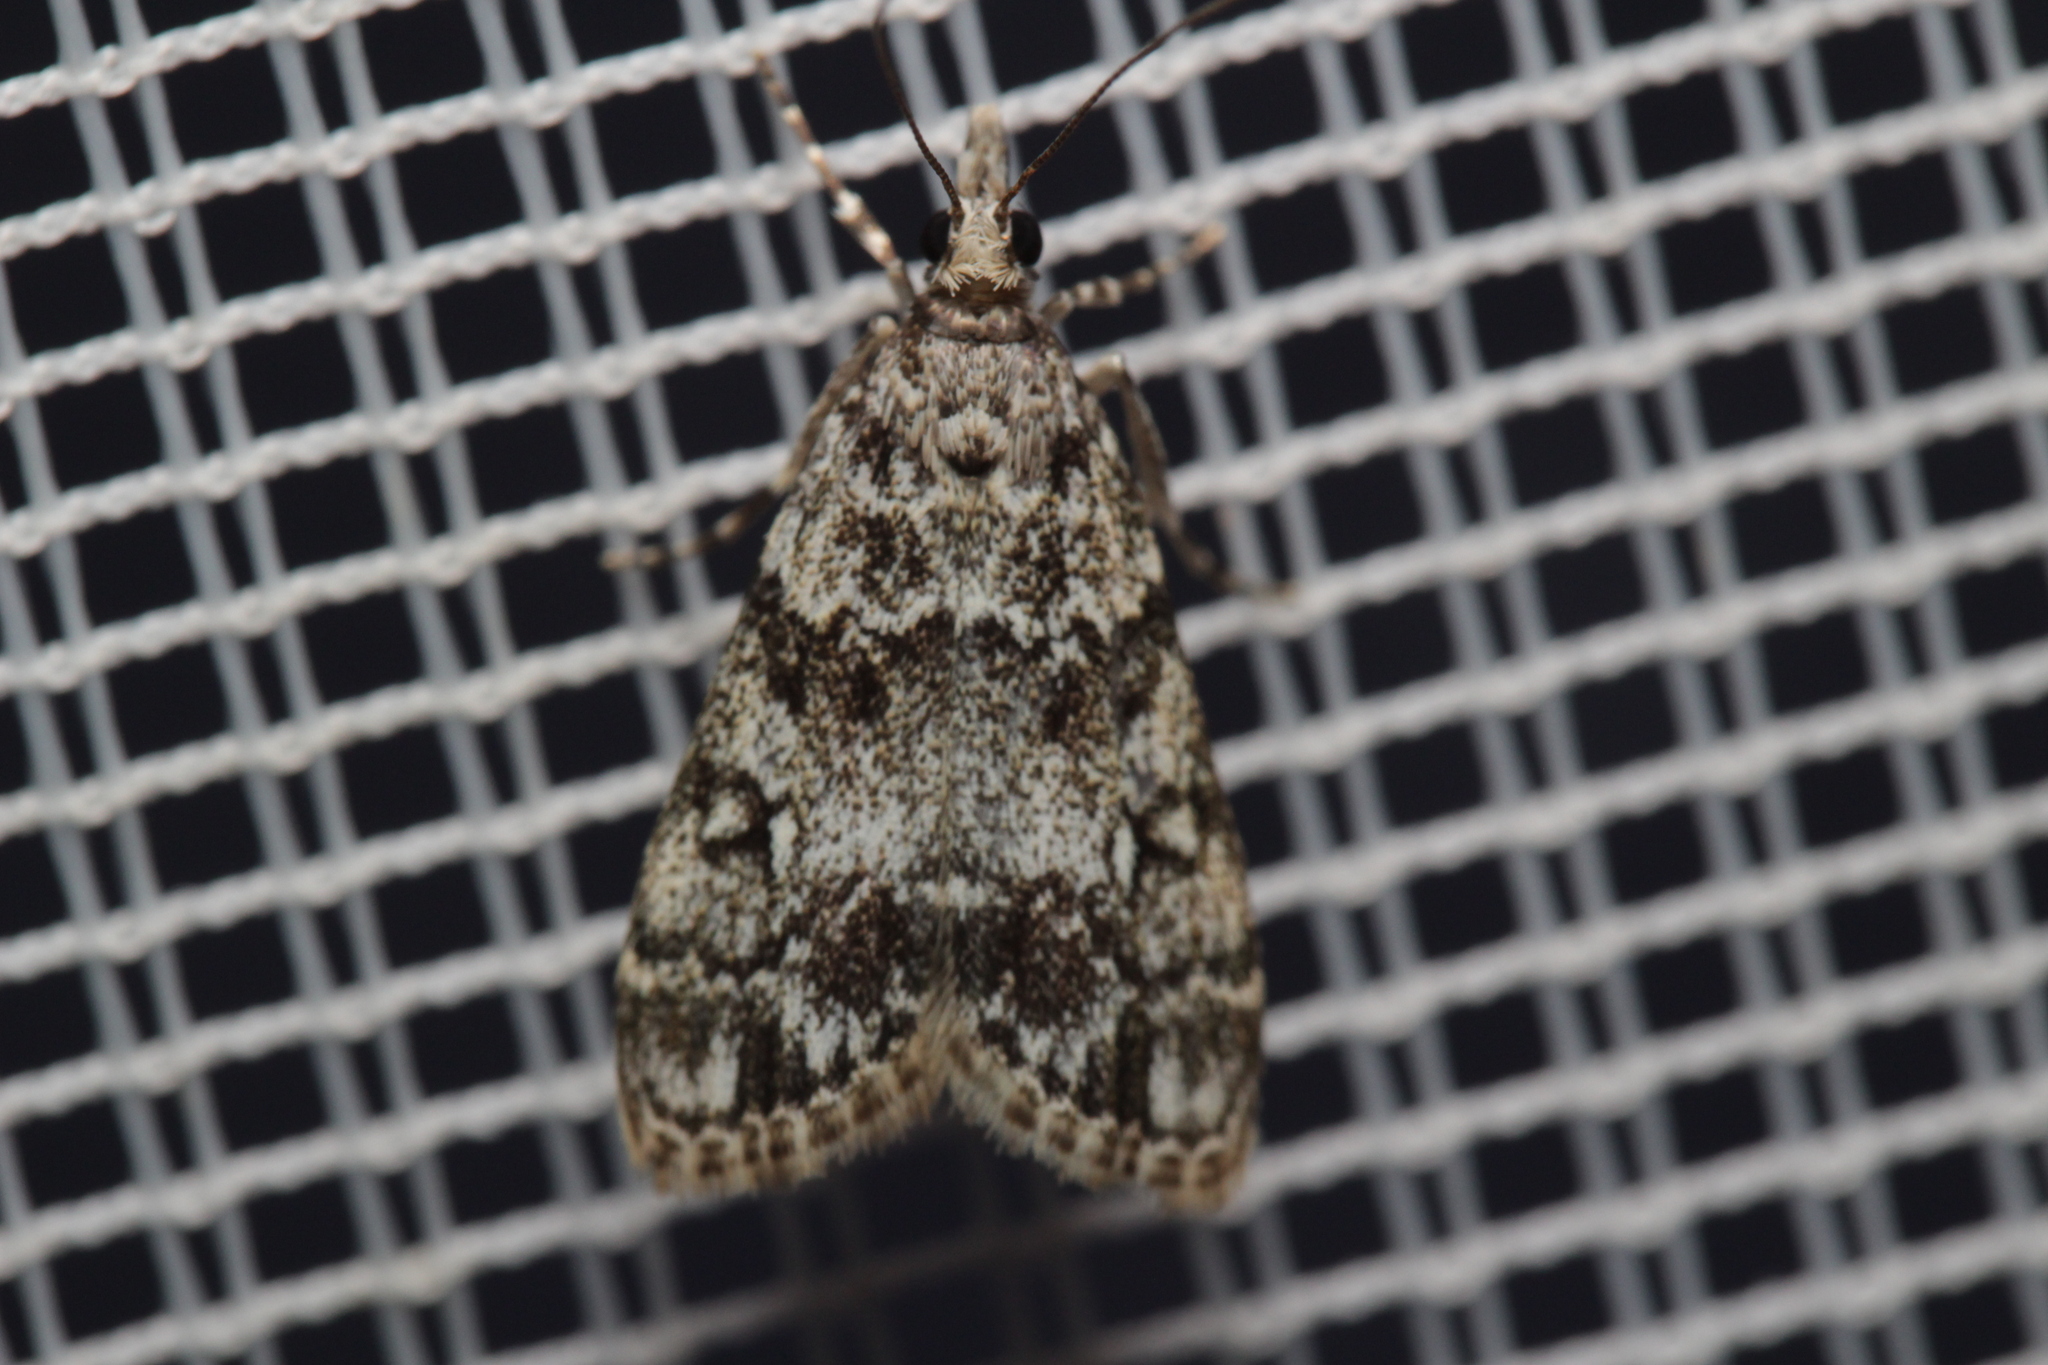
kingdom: Animalia
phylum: Arthropoda
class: Insecta
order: Lepidoptera
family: Crambidae
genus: Eudonia
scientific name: Eudonia lacustrata
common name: Little grey
